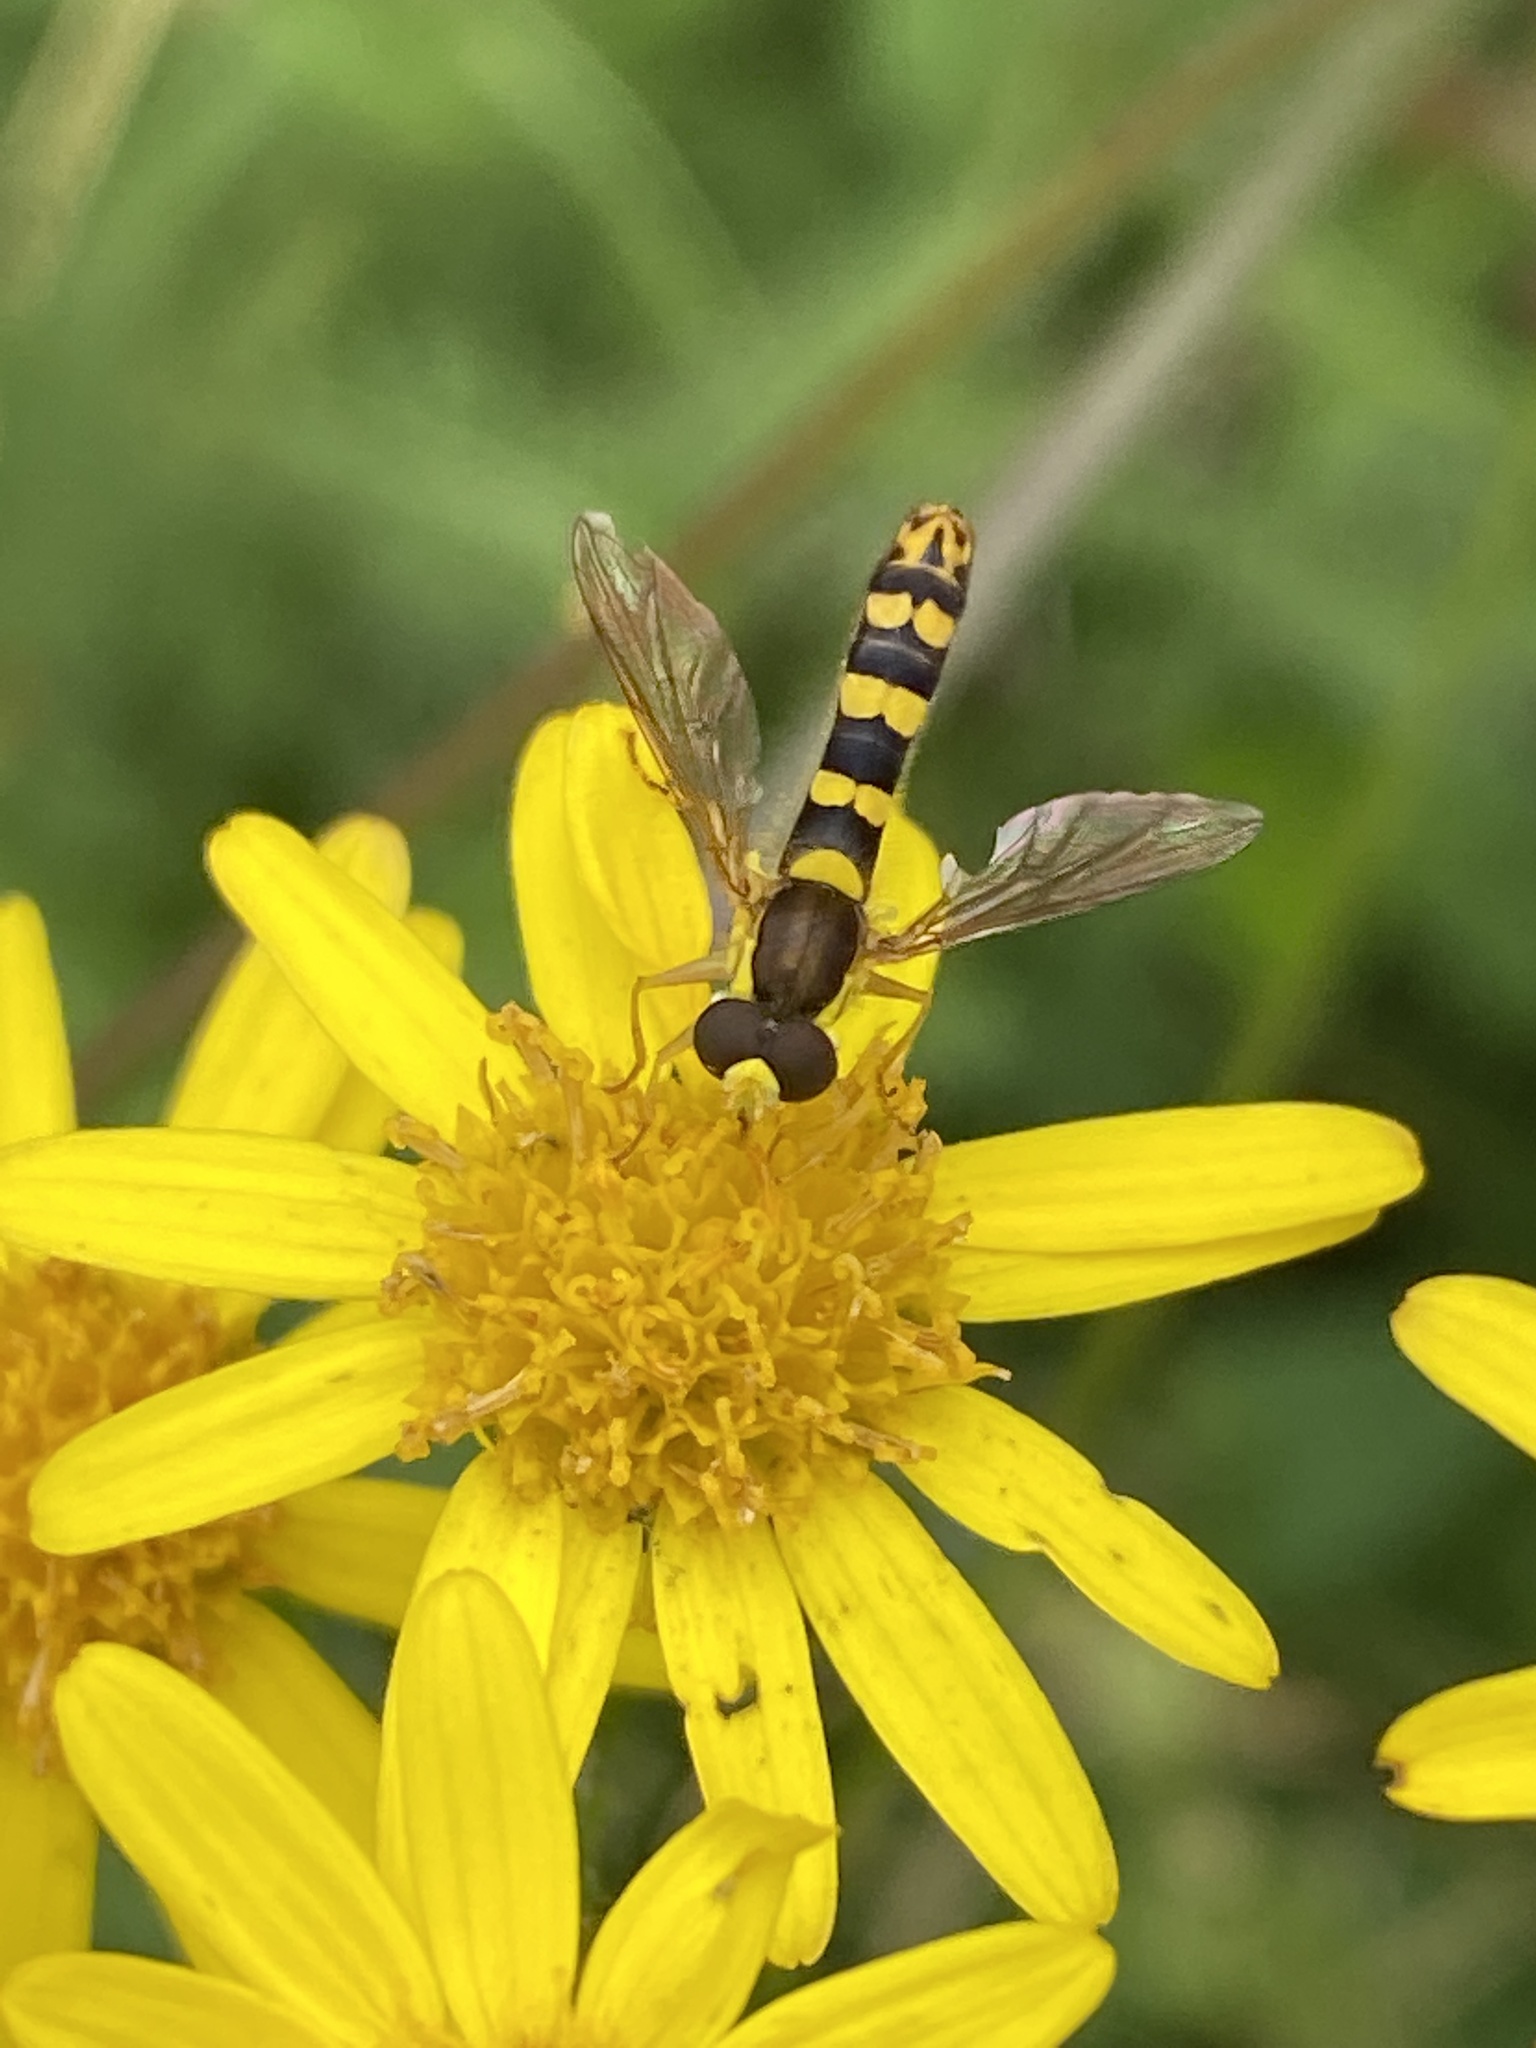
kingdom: Animalia
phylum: Arthropoda
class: Insecta
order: Diptera
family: Syrphidae
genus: Sphaerophoria
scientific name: Sphaerophoria scripta
